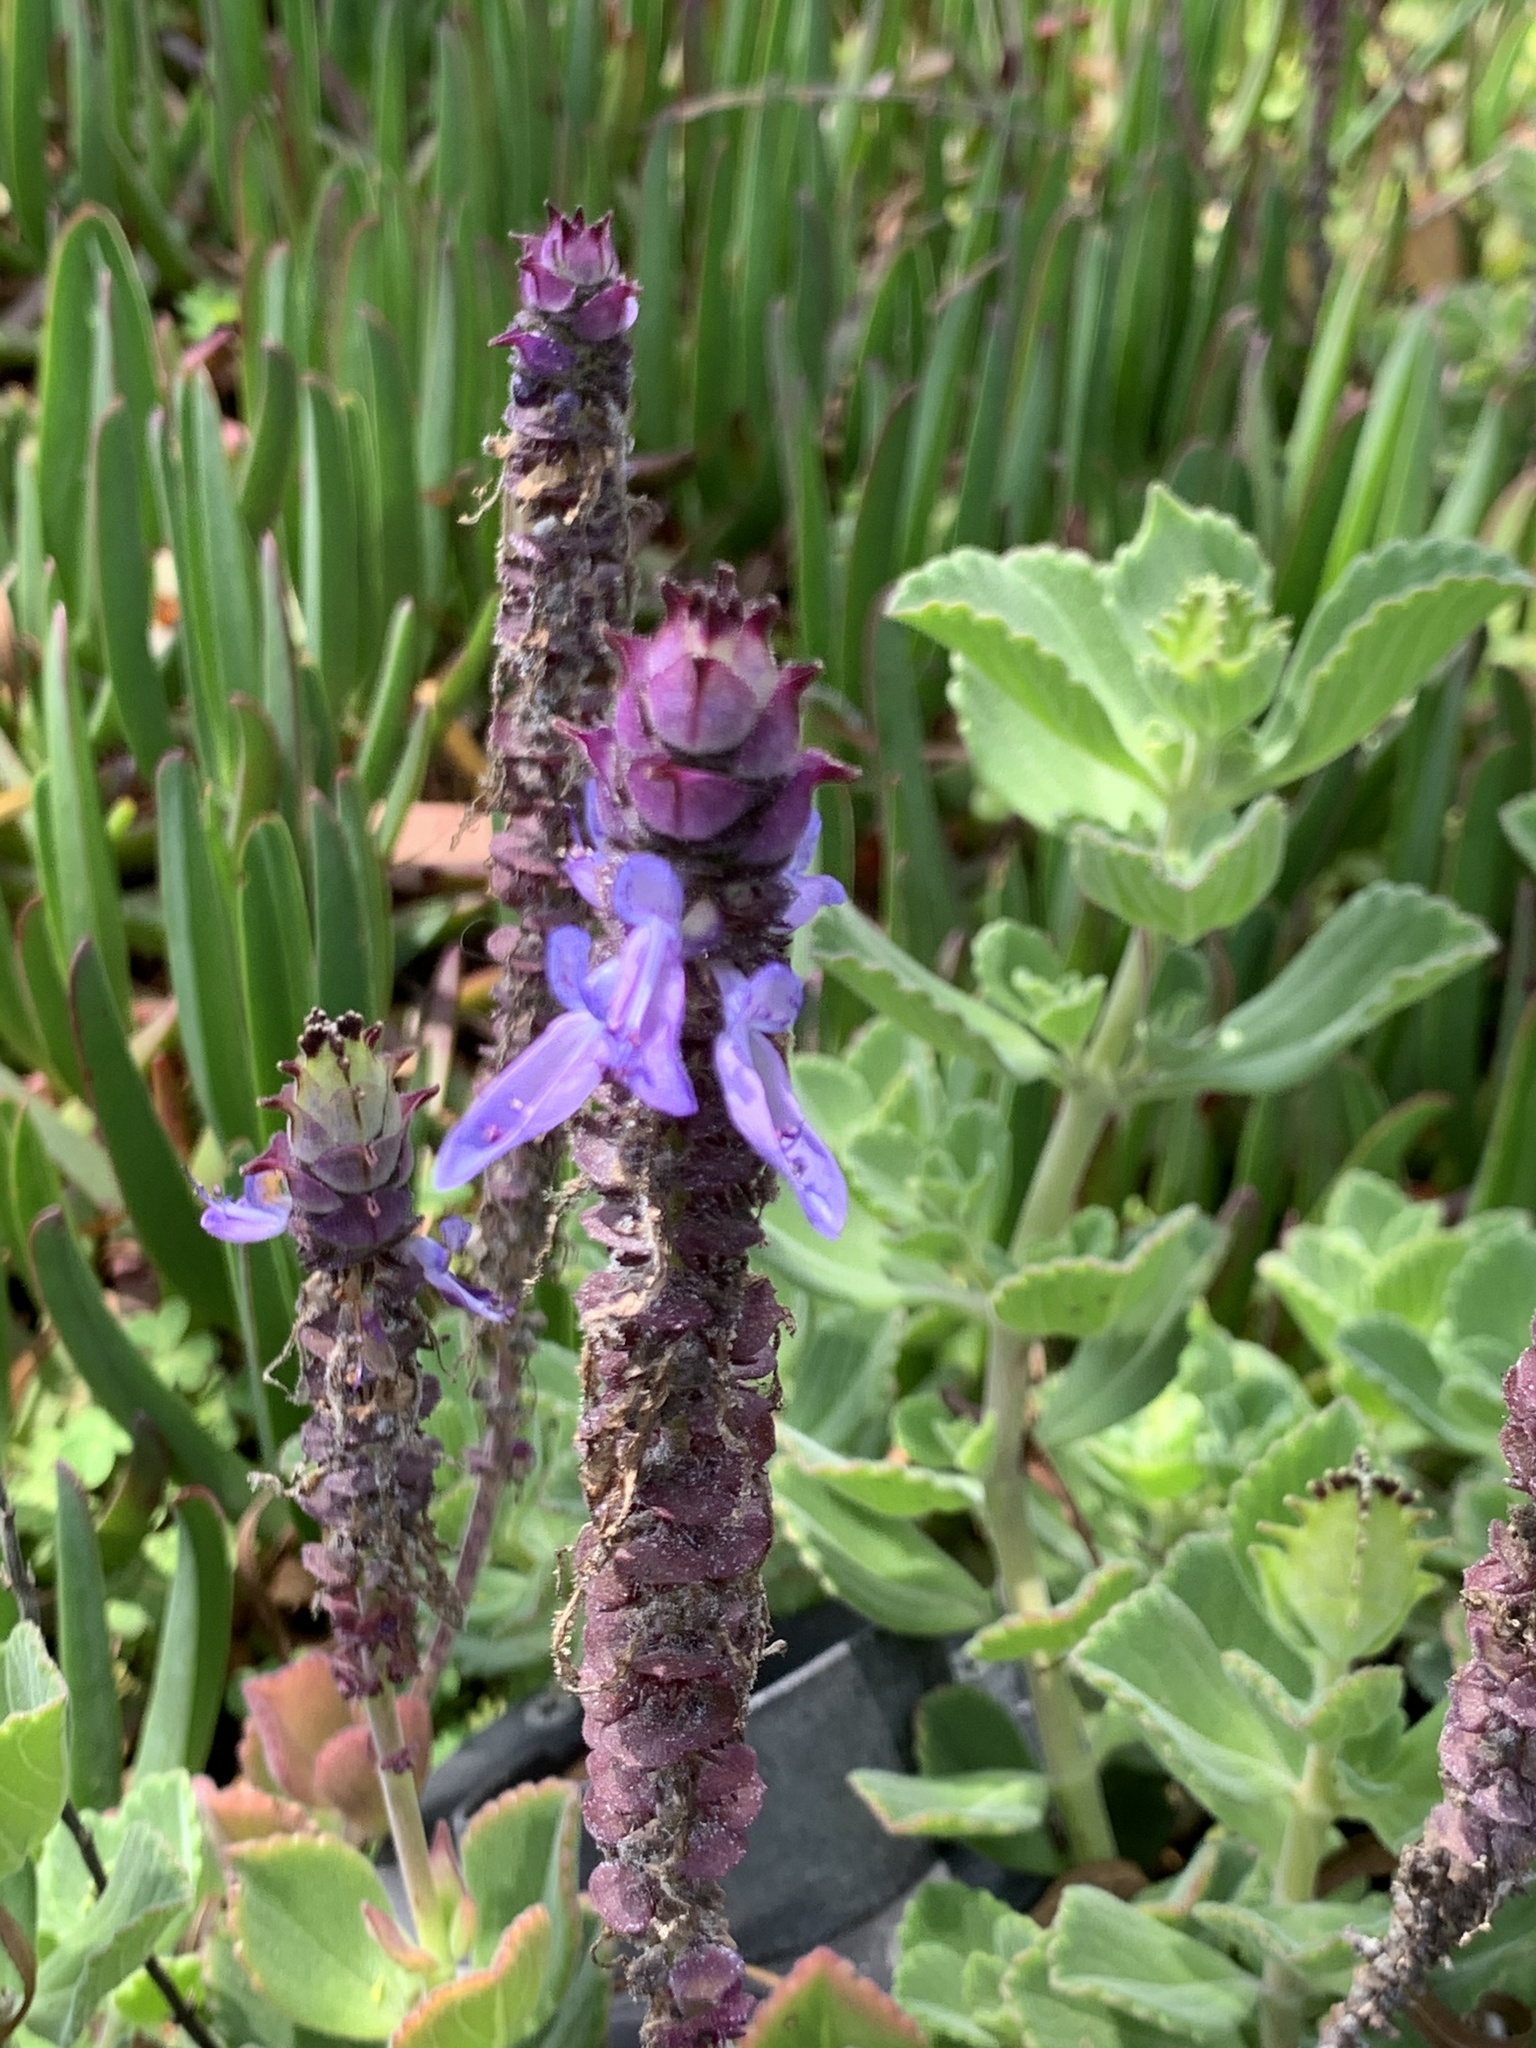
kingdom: Plantae
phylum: Tracheophyta
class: Magnoliopsida
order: Lamiales
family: Lamiaceae
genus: Coleus
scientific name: Coleus neochilus
